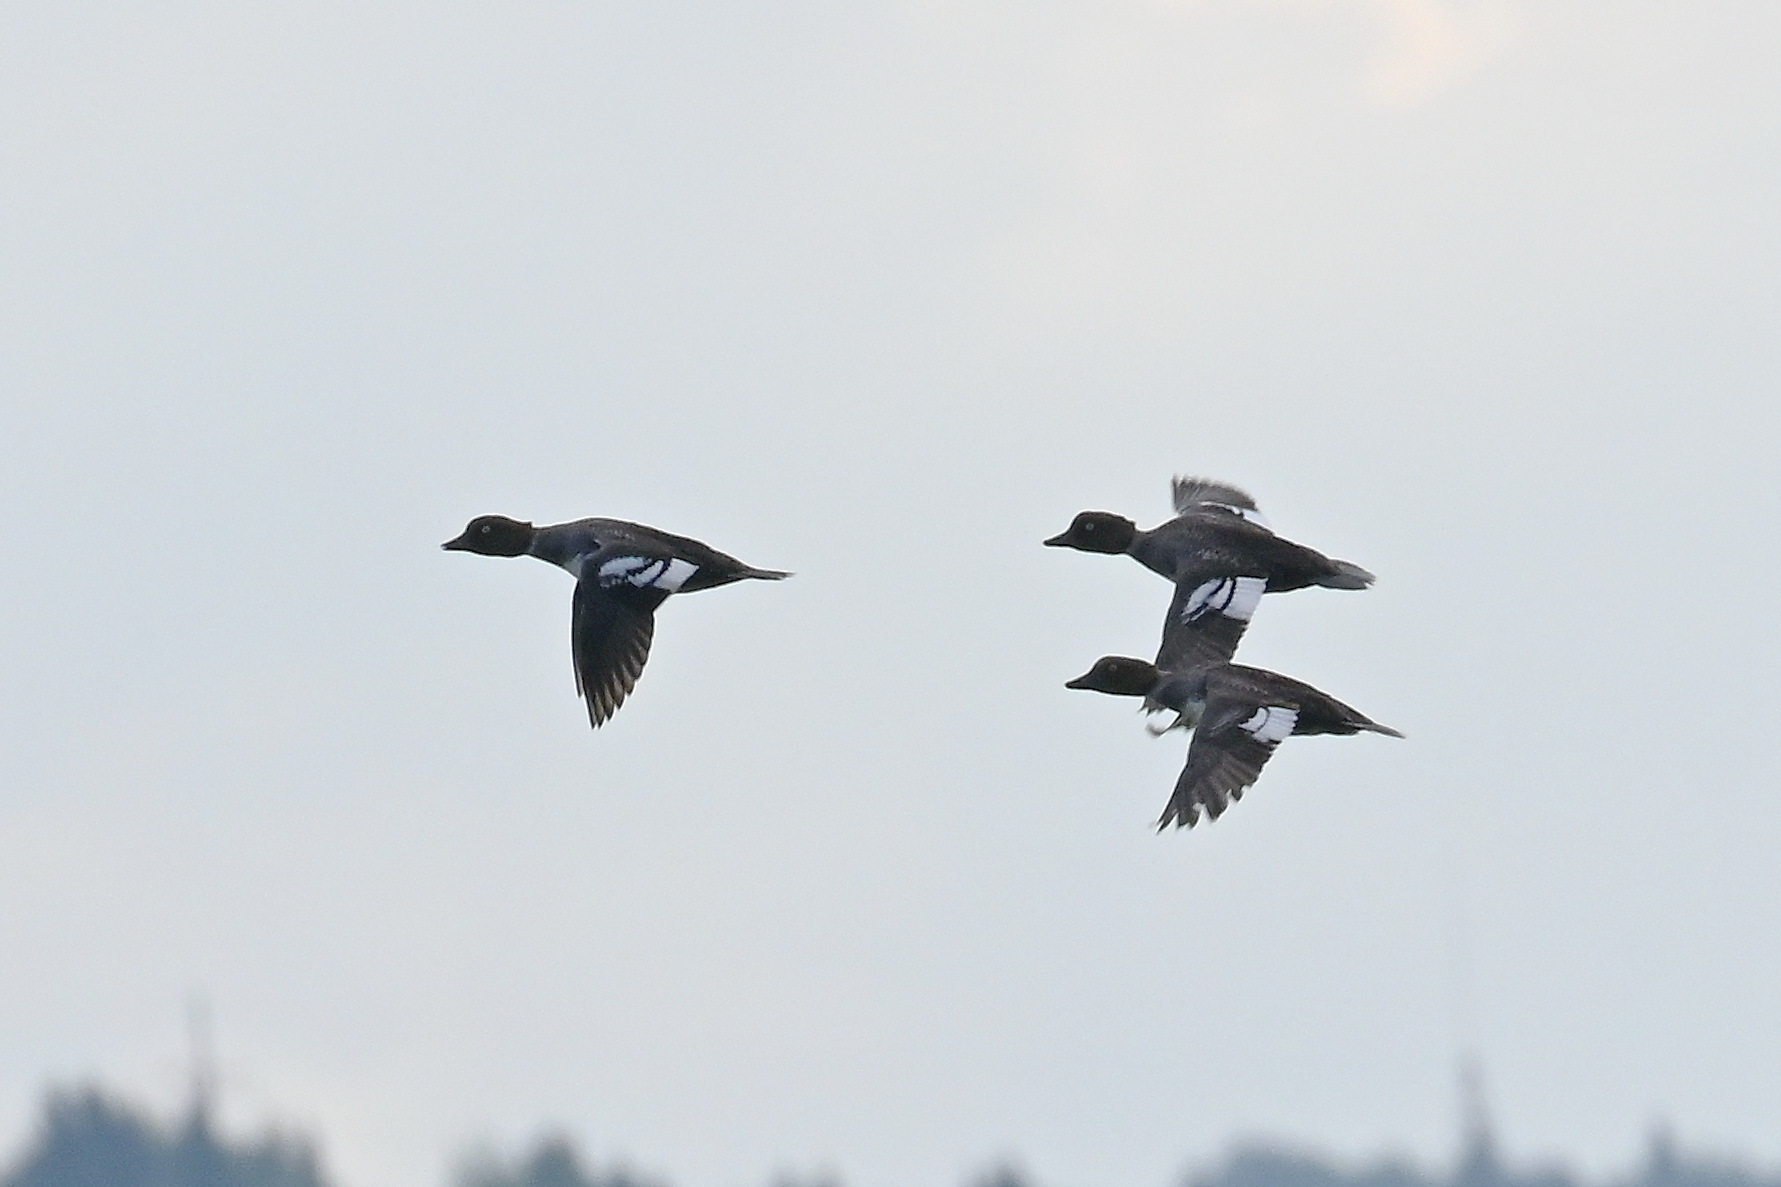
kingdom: Animalia
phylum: Chordata
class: Aves
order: Anseriformes
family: Anatidae
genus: Bucephala
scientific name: Bucephala clangula
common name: Common goldeneye
